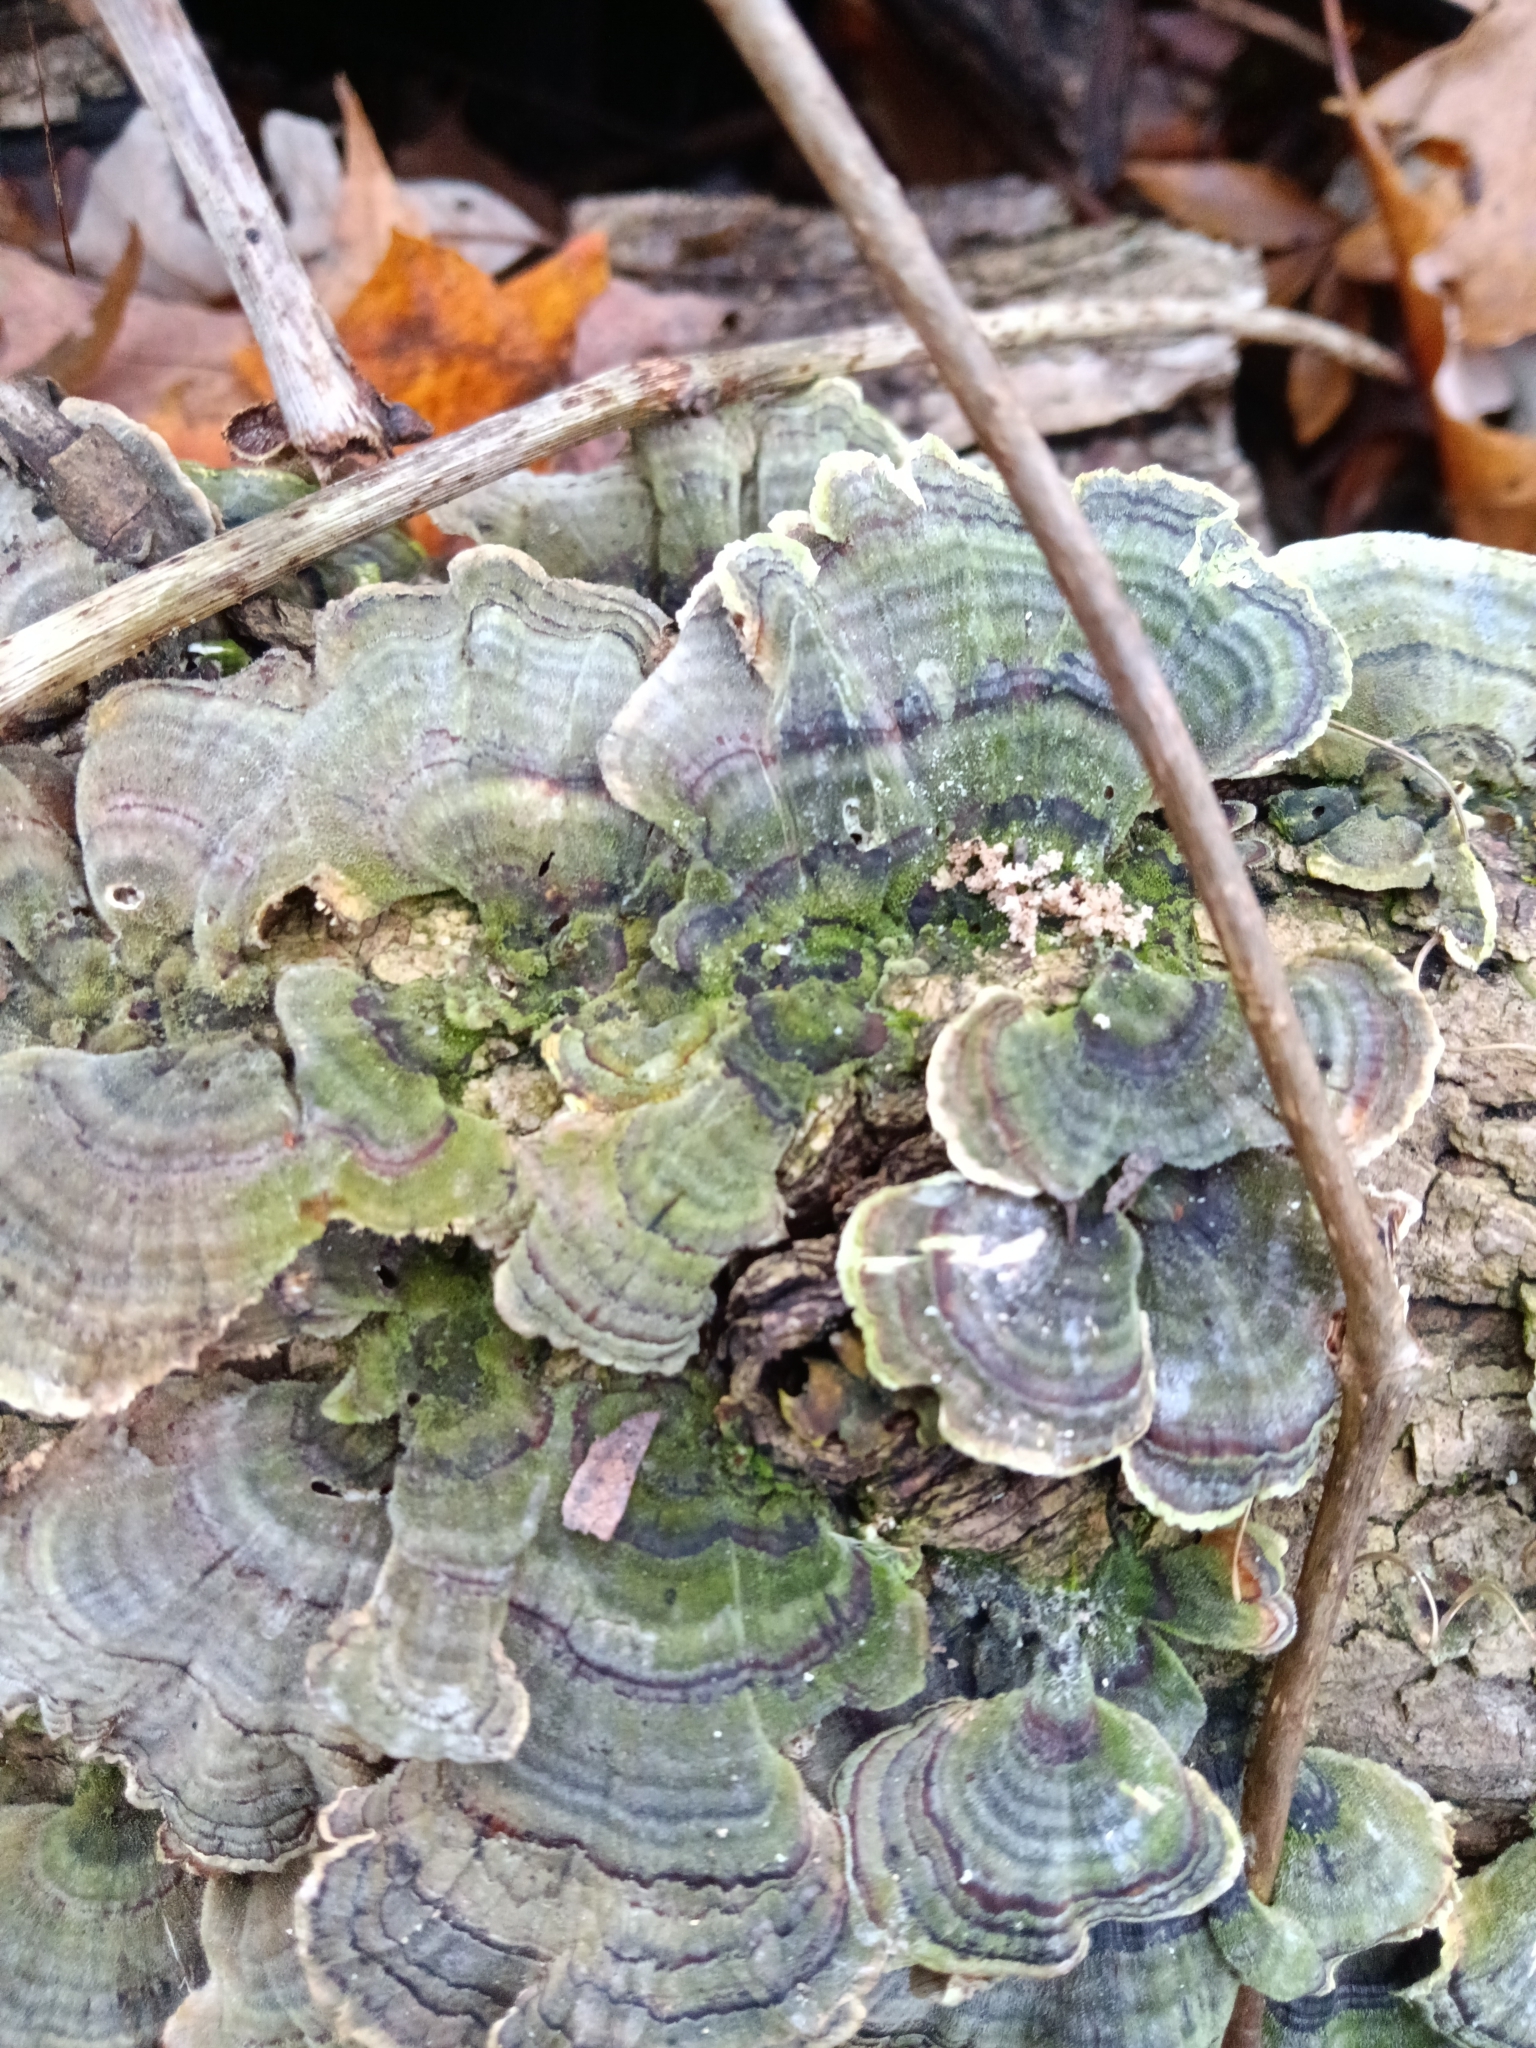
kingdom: Fungi
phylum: Basidiomycota
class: Agaricomycetes
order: Polyporales
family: Polyporaceae
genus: Trametes
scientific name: Trametes versicolor
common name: Turkeytail
